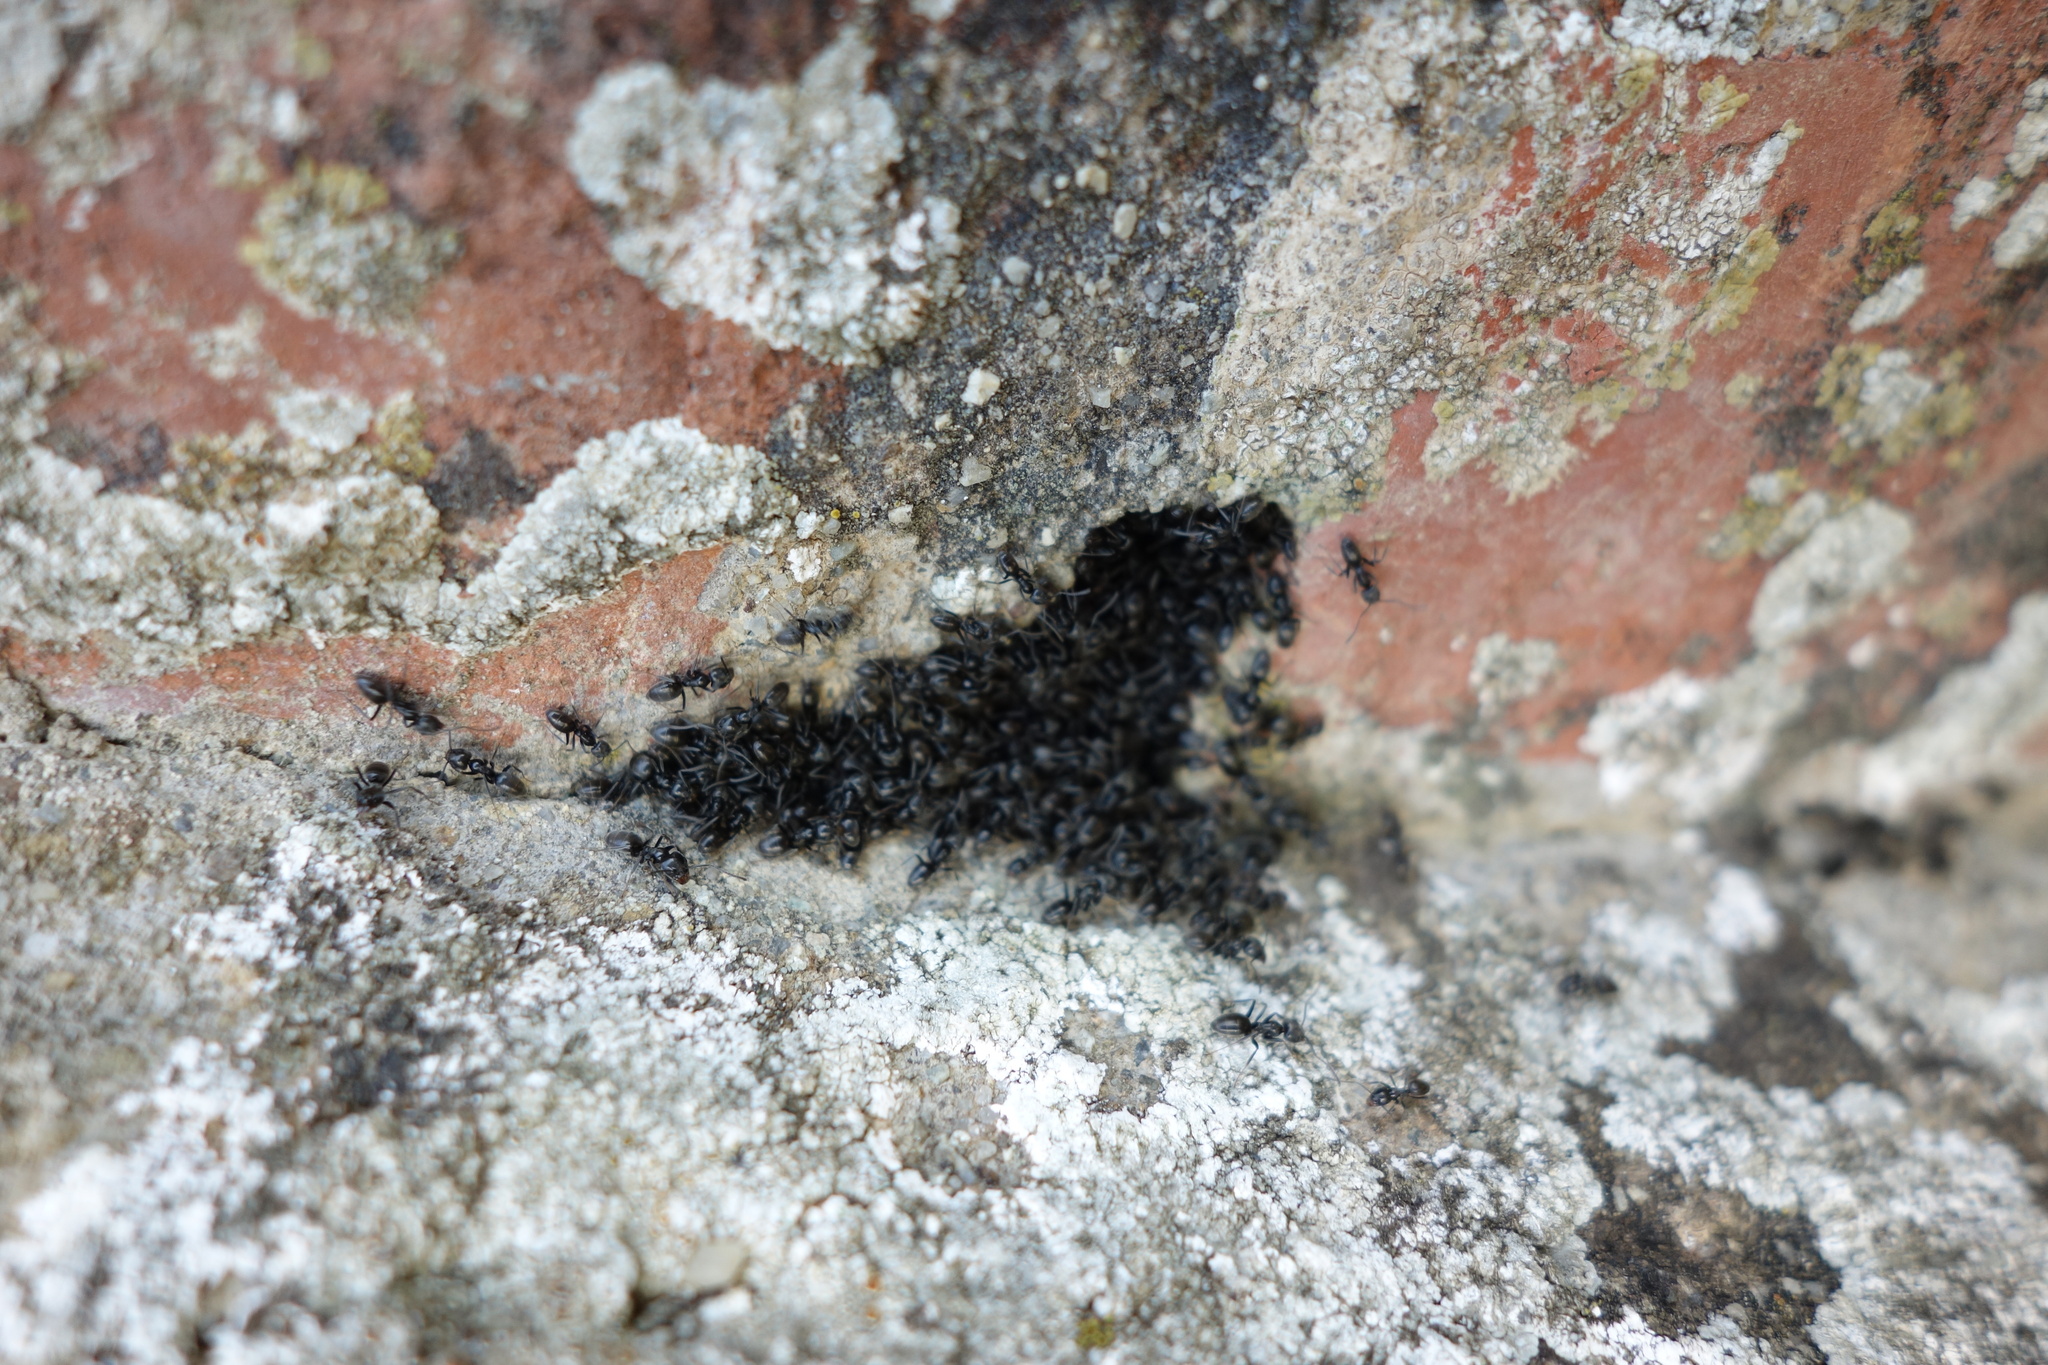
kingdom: Animalia
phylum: Arthropoda
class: Insecta
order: Hymenoptera
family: Formicidae
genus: Tapinoma
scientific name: Tapinoma nigerrimum
